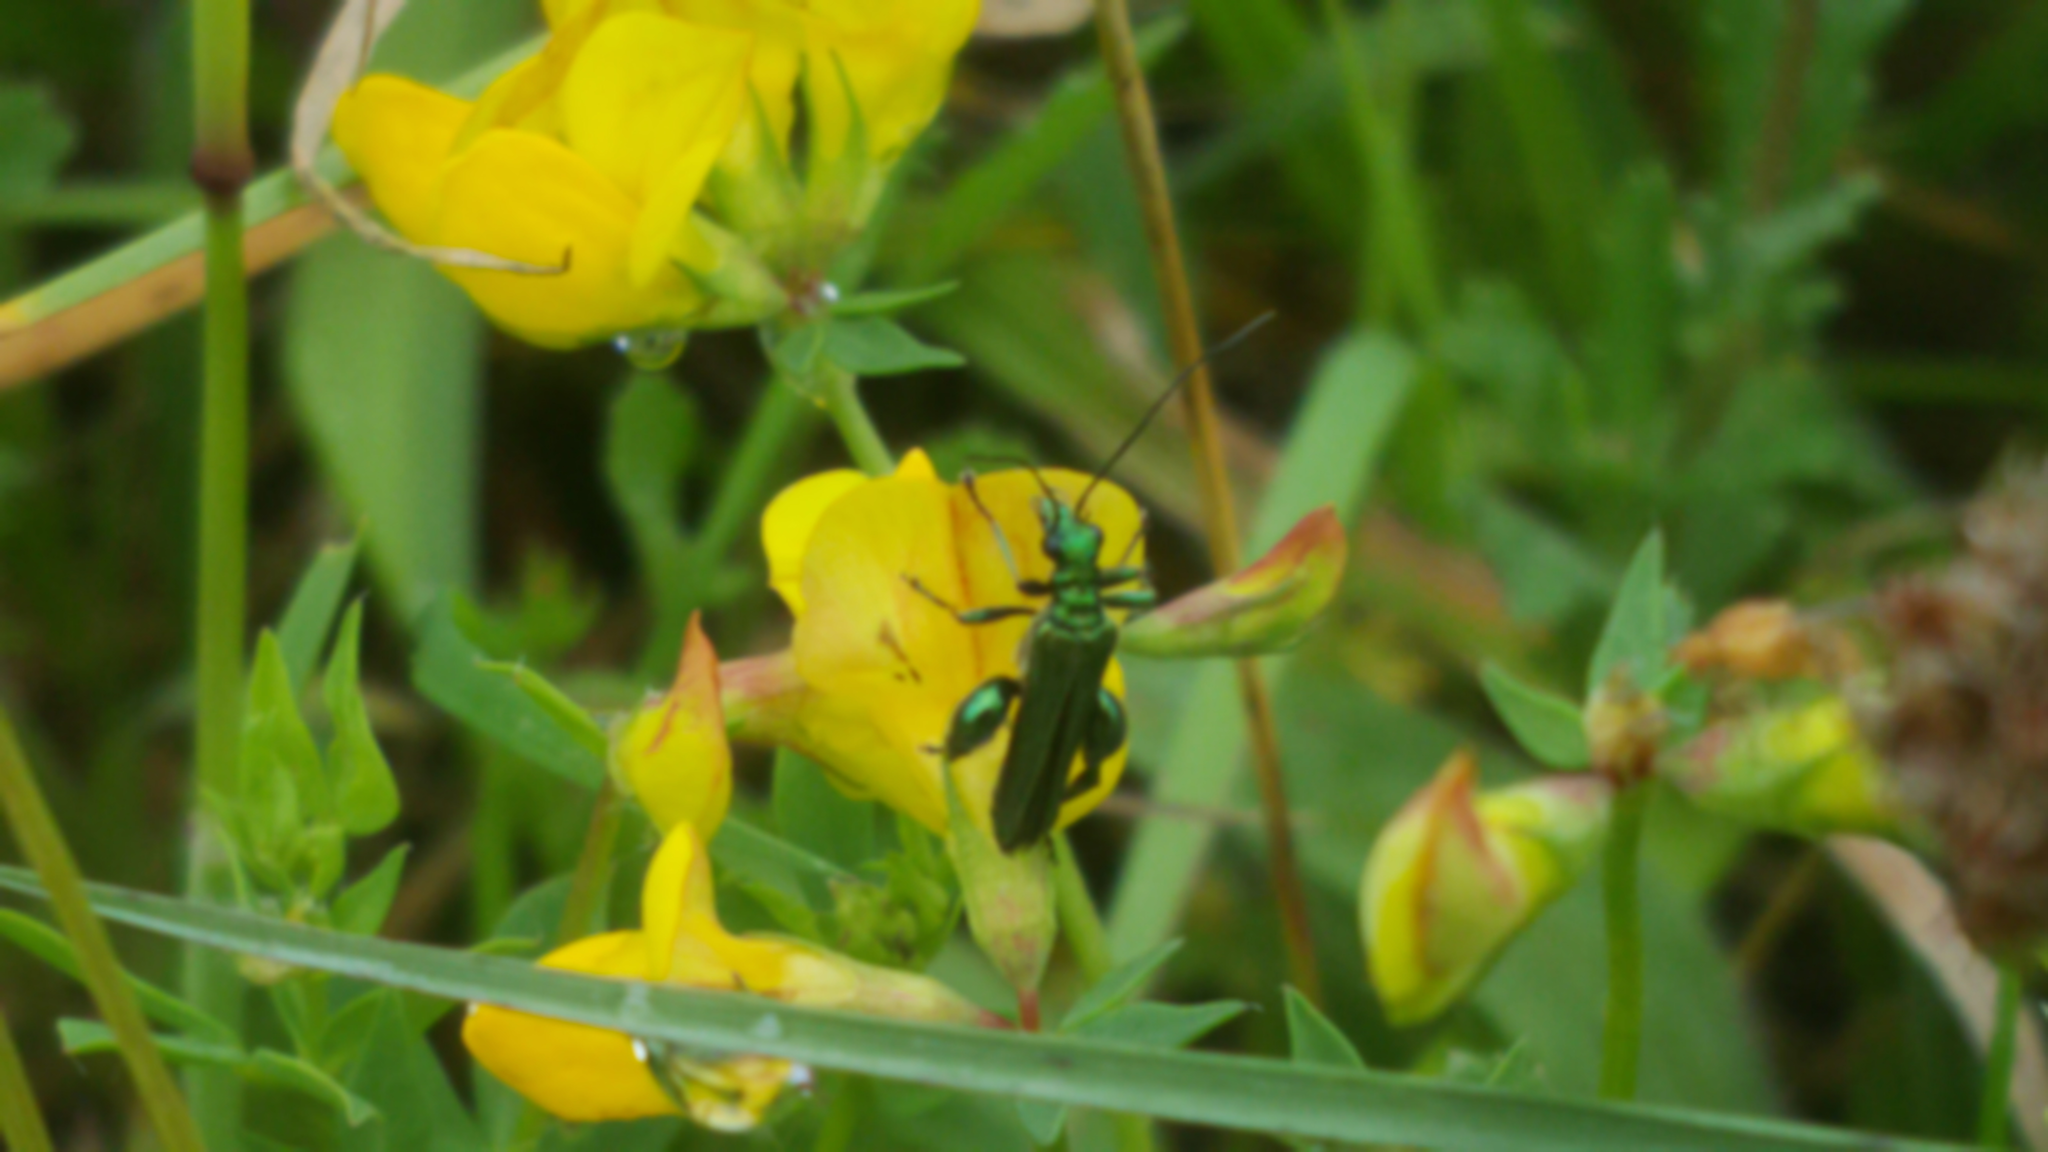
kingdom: Animalia
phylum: Arthropoda
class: Insecta
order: Coleoptera
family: Oedemeridae
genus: Oedemera
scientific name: Oedemera nobilis
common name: Swollen-thighed beetle
